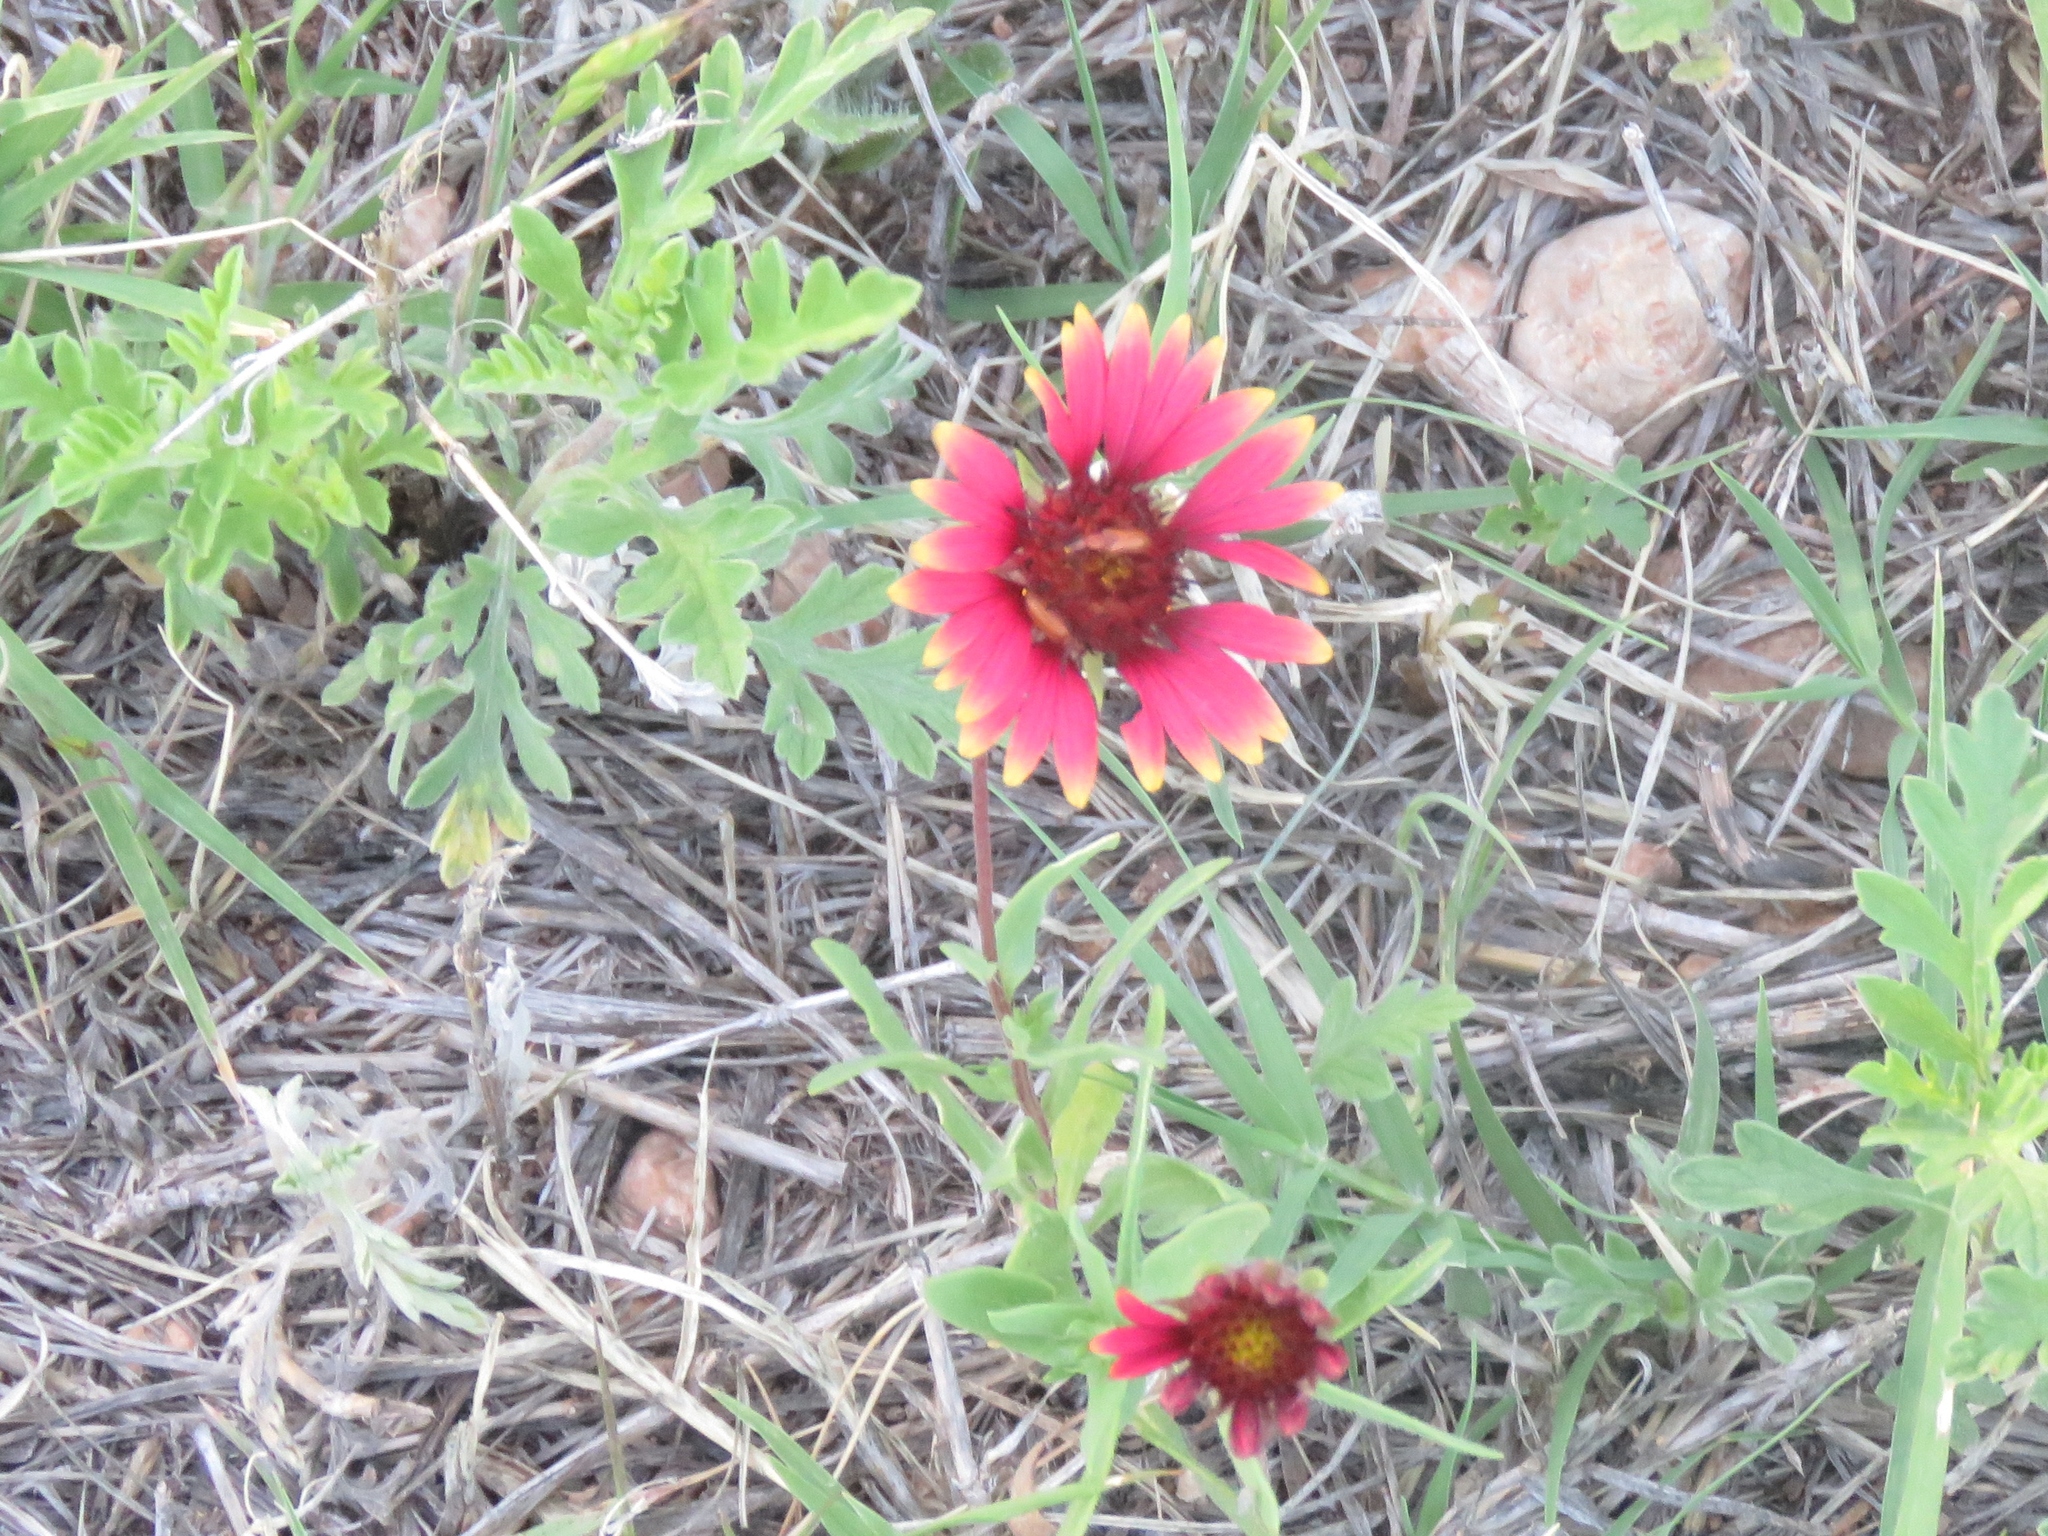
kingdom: Plantae
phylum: Tracheophyta
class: Magnoliopsida
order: Asterales
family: Asteraceae
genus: Gaillardia
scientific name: Gaillardia pulchella
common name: Firewheel
